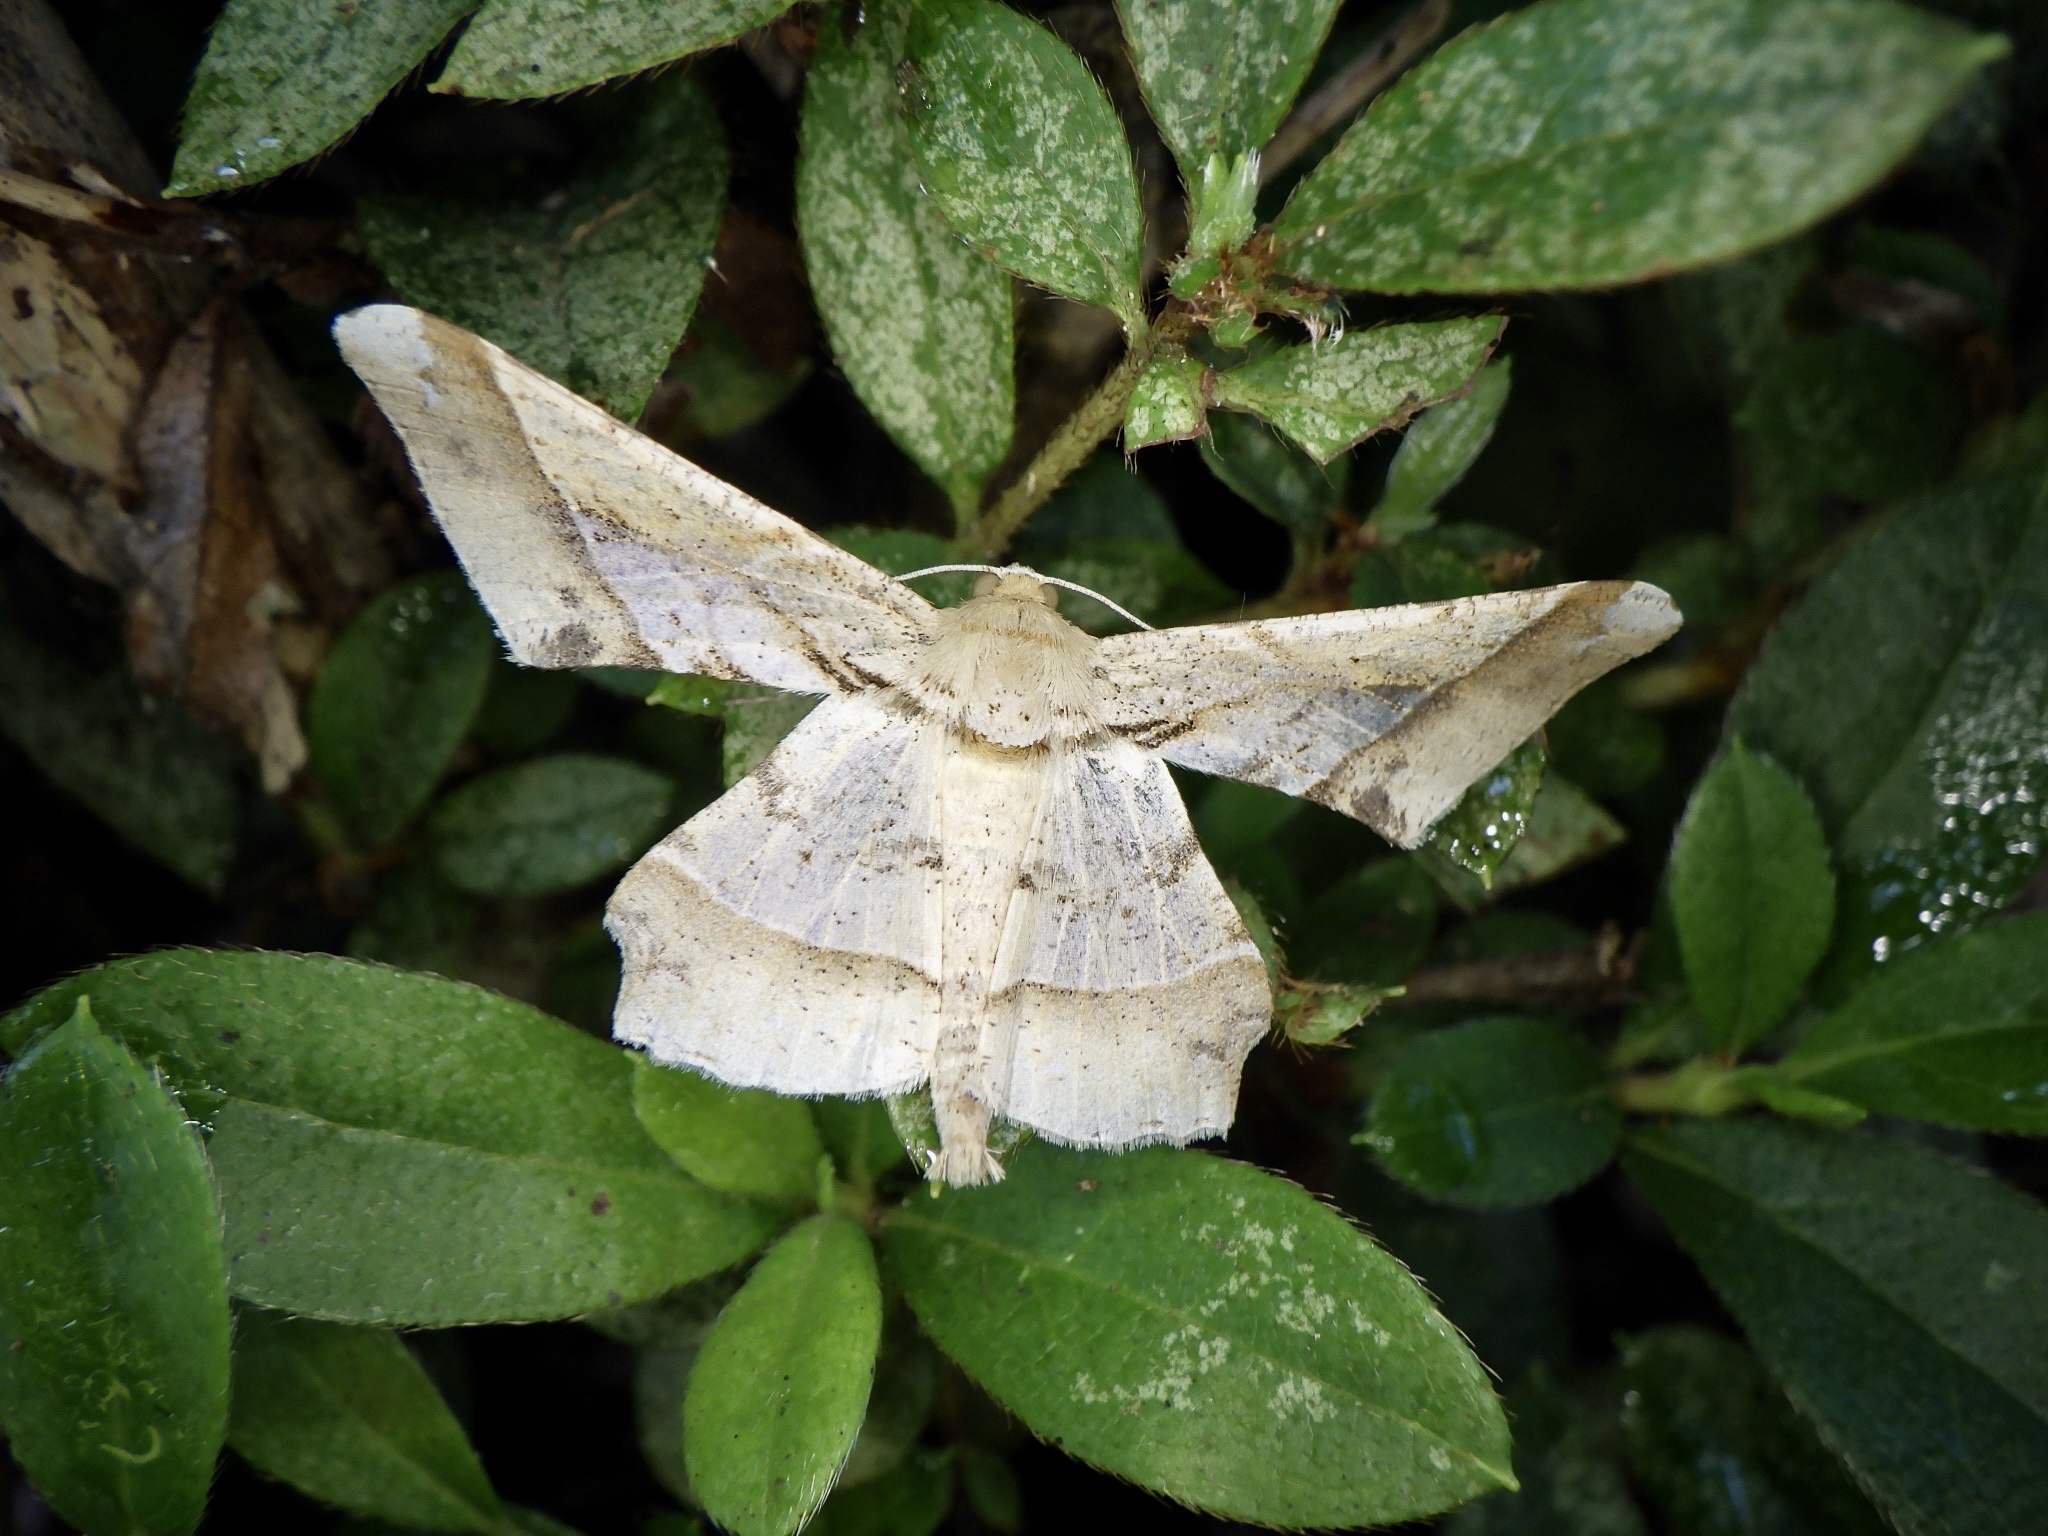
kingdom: Animalia
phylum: Arthropoda
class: Insecta
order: Lepidoptera
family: Geometridae
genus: Krananda
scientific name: Krananda latimarginaria
